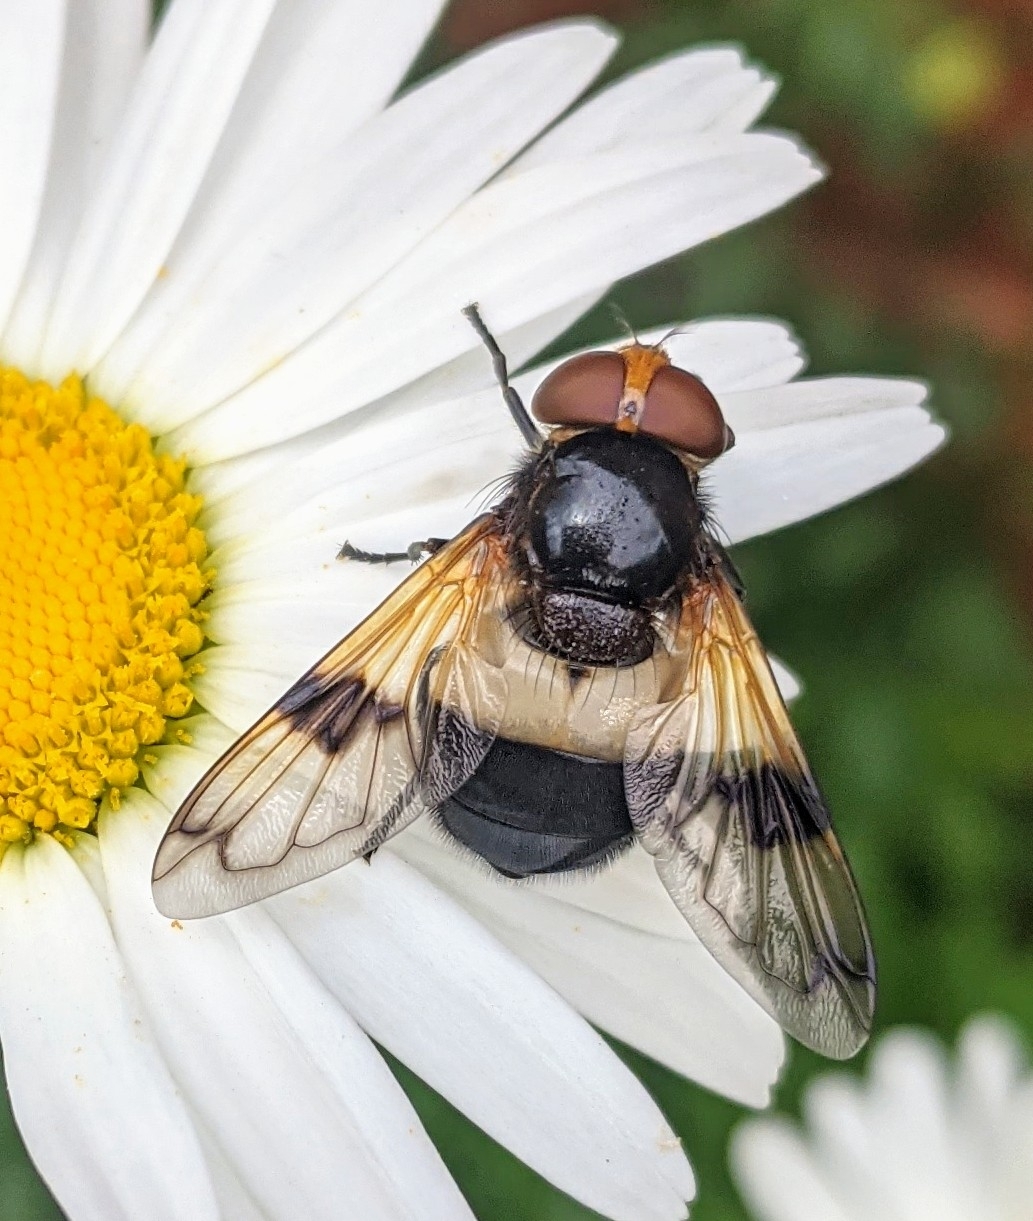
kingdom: Animalia
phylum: Arthropoda
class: Insecta
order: Diptera
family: Syrphidae
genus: Volucella
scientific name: Volucella pellucens
